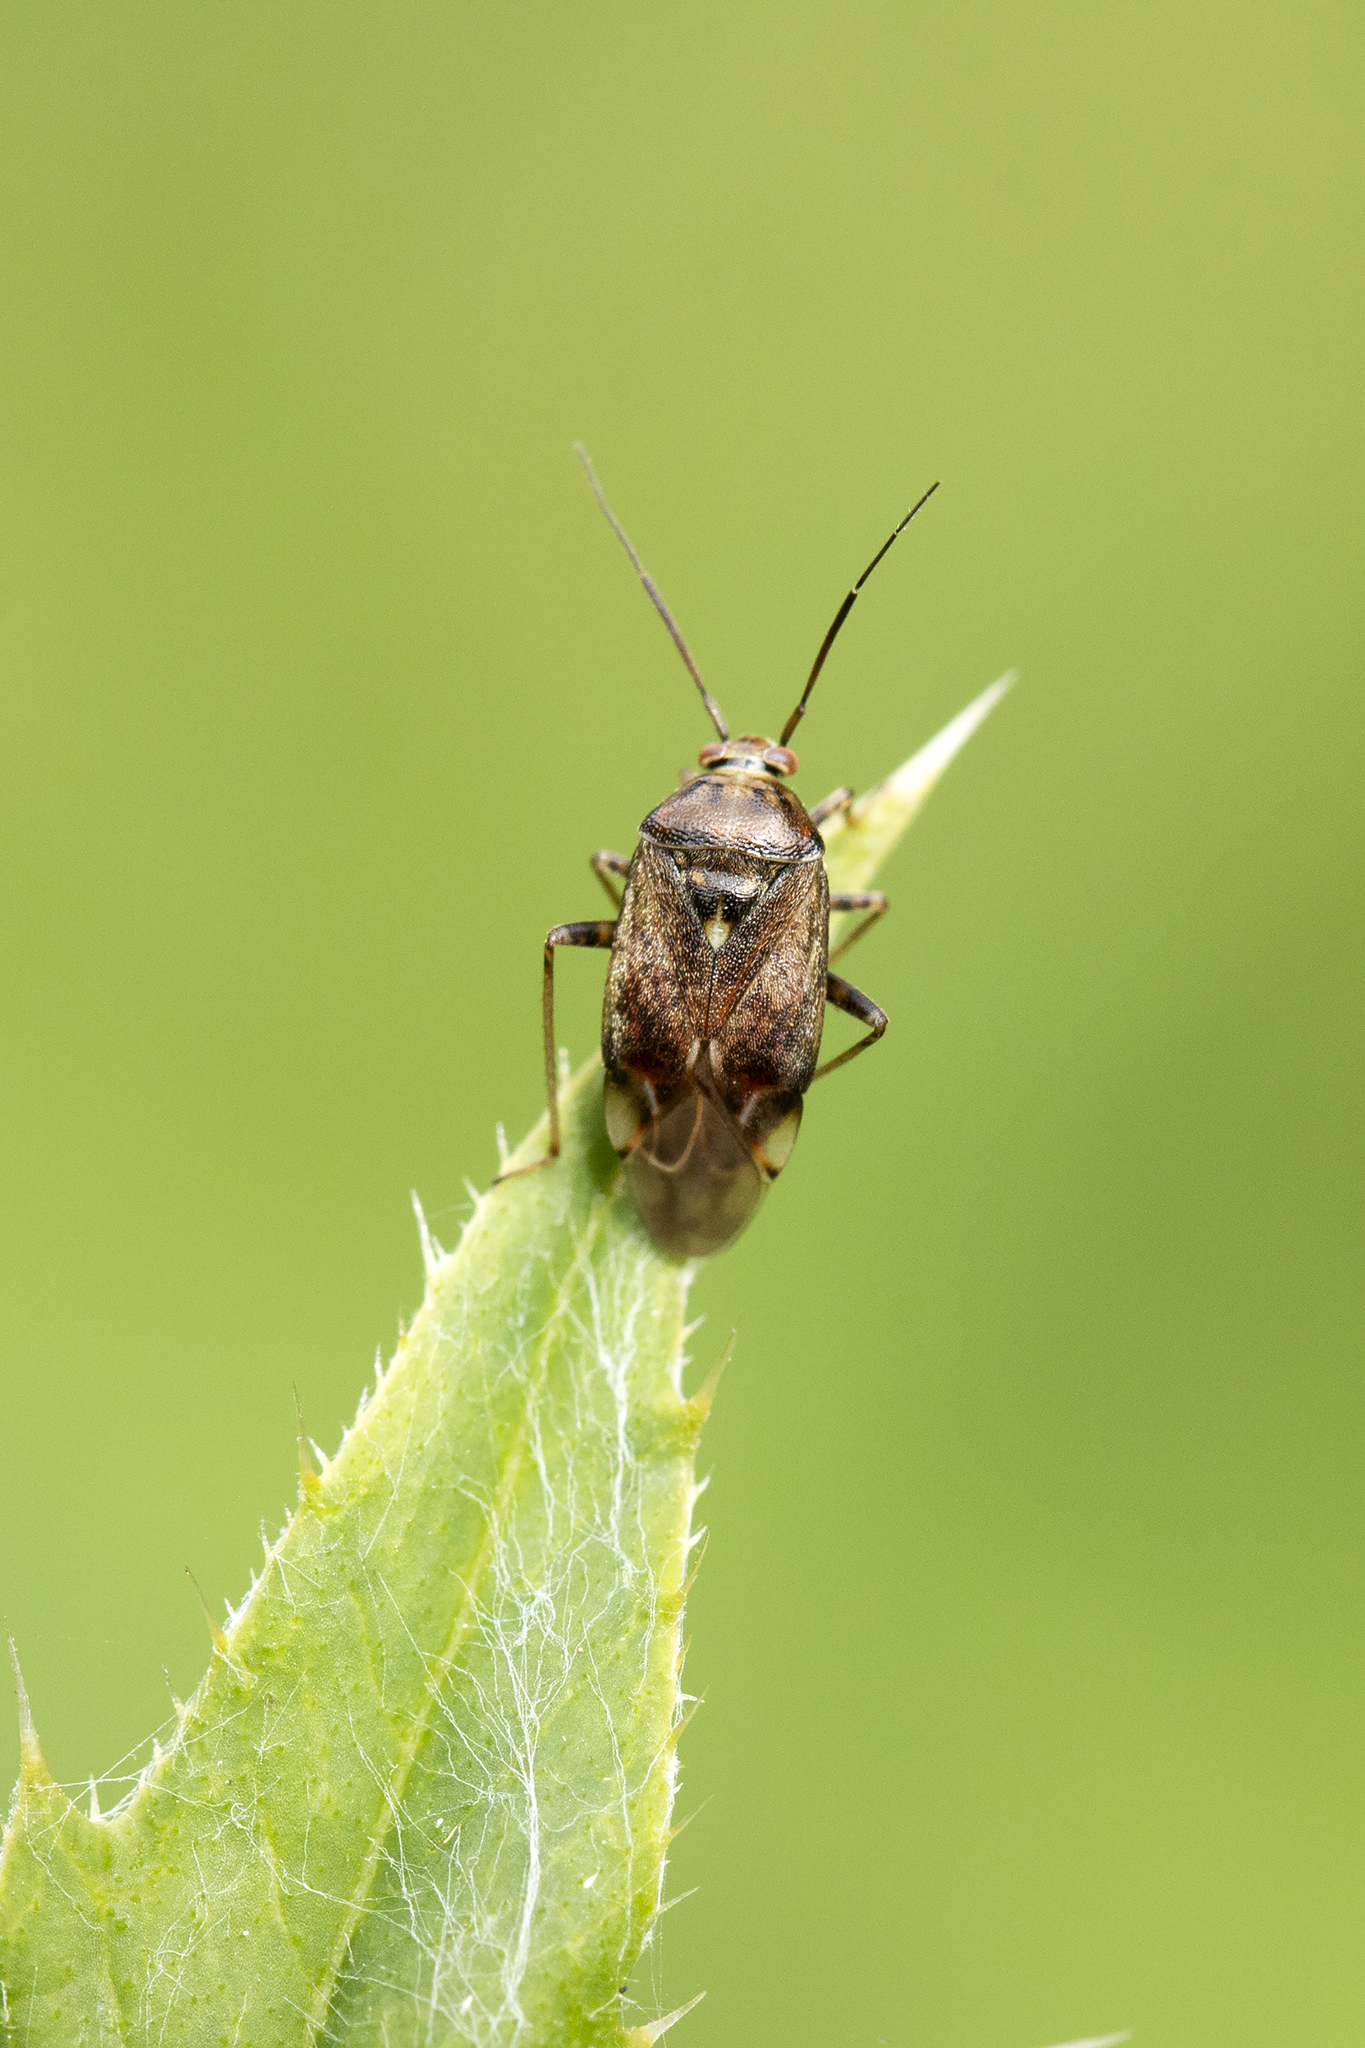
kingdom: Animalia
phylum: Arthropoda
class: Insecta
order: Hemiptera
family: Miridae
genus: Lygus
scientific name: Lygus rugulipennis
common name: European tarnished plant bug
